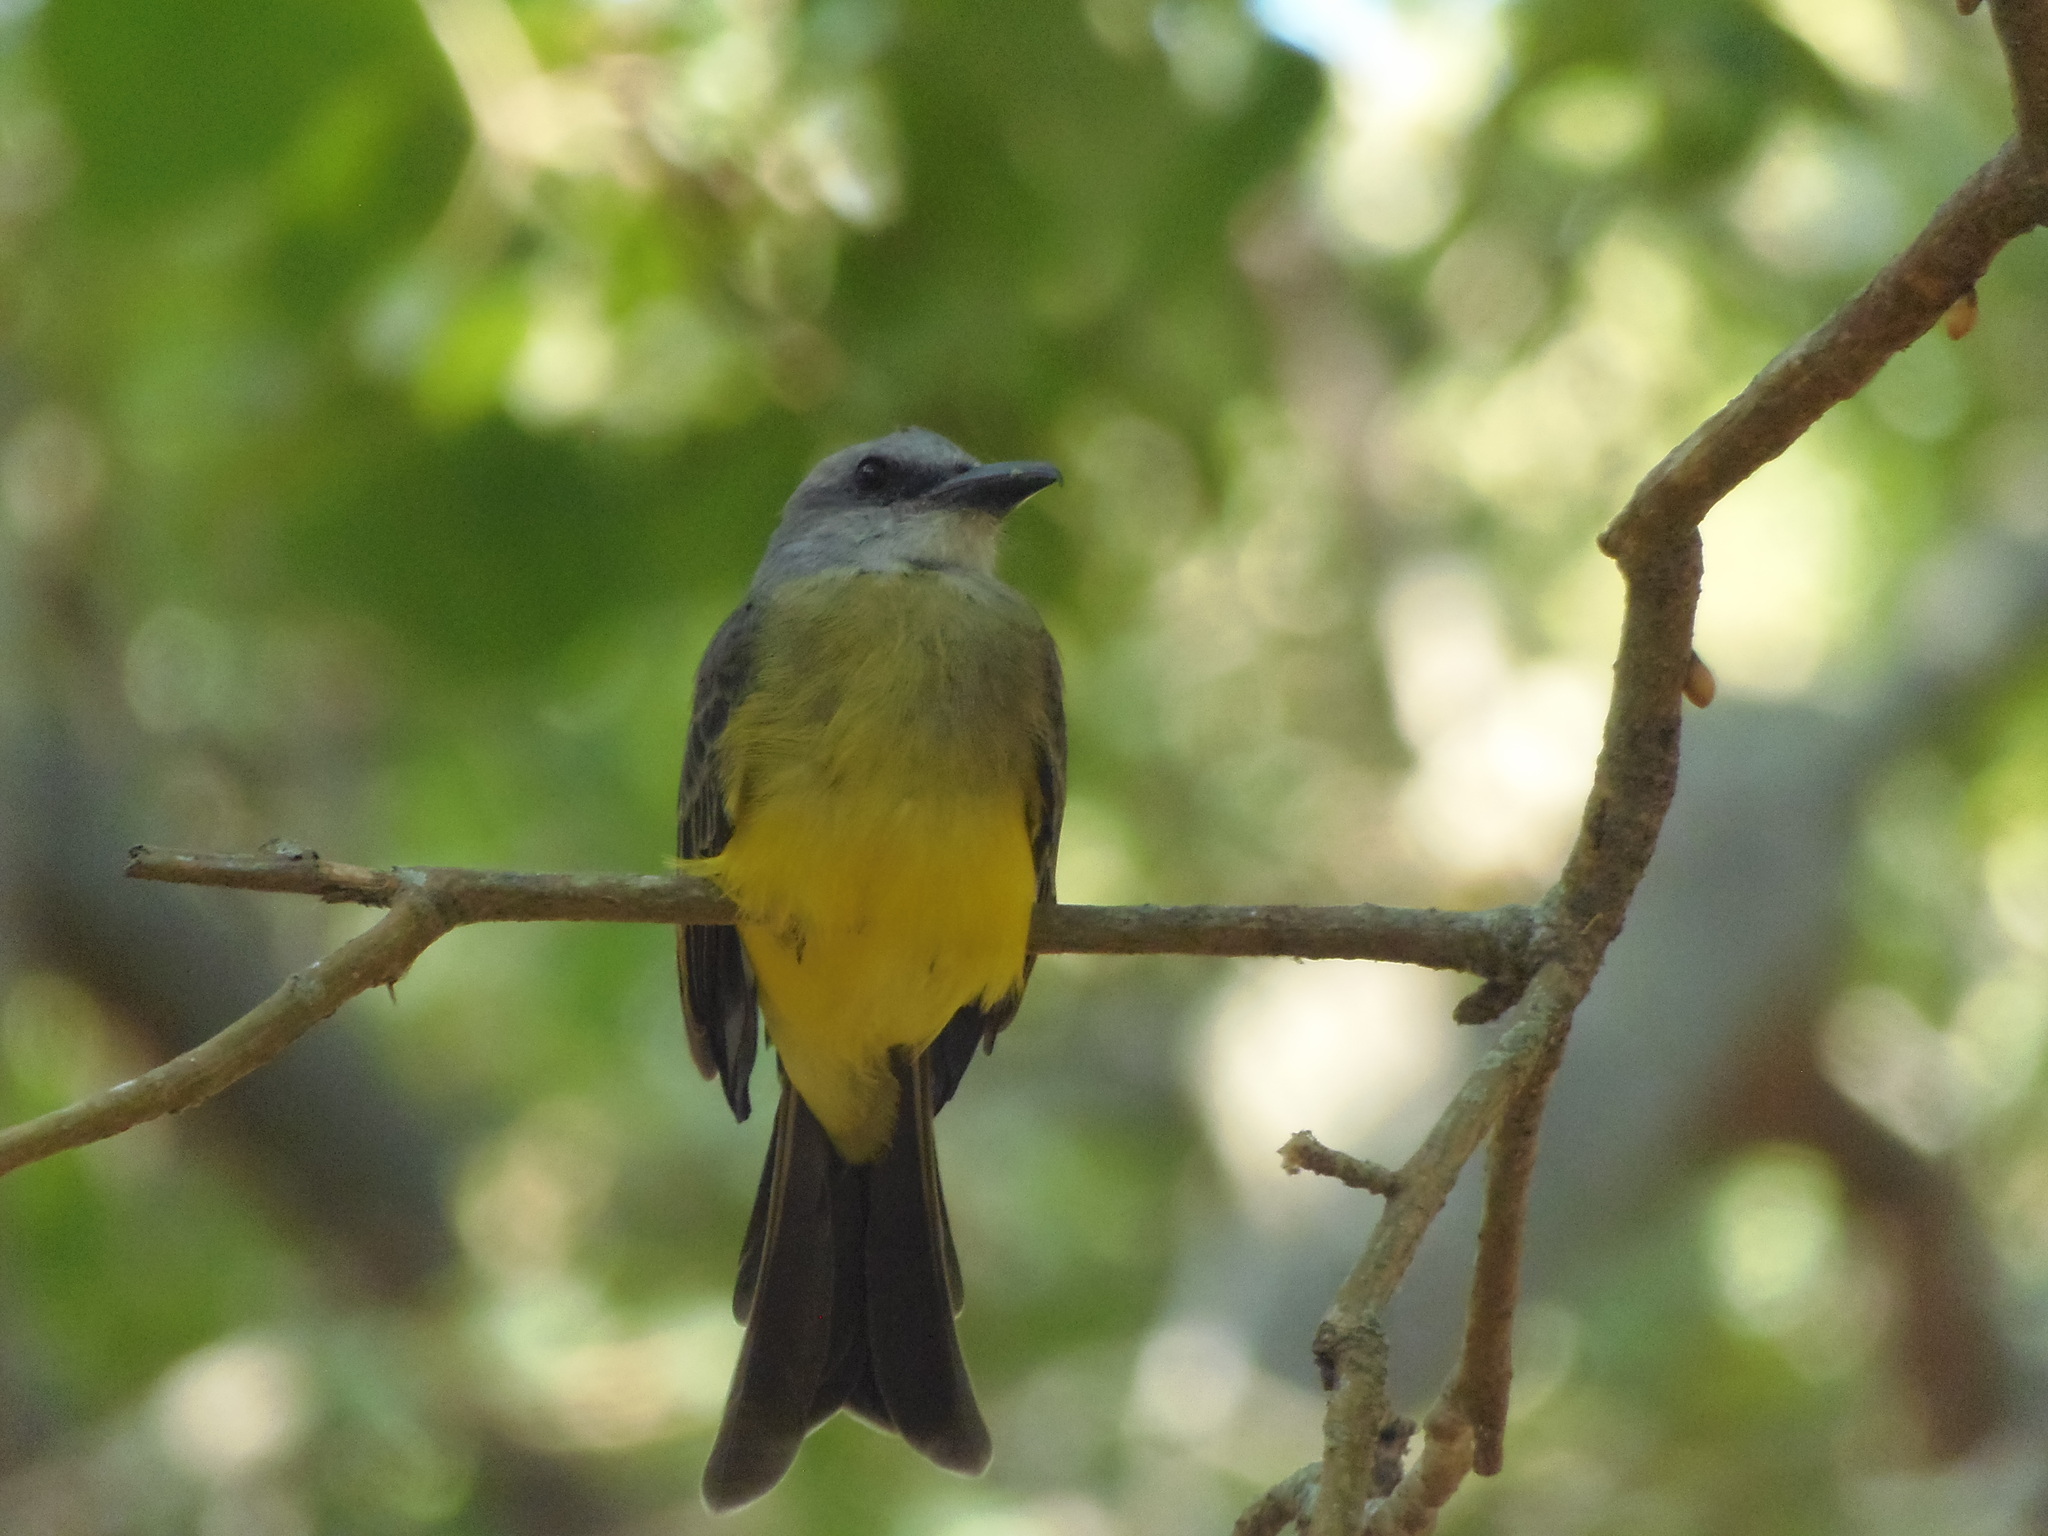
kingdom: Animalia
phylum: Chordata
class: Aves
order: Passeriformes
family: Tyrannidae
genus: Tyrannus
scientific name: Tyrannus melancholicus
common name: Tropical kingbird
